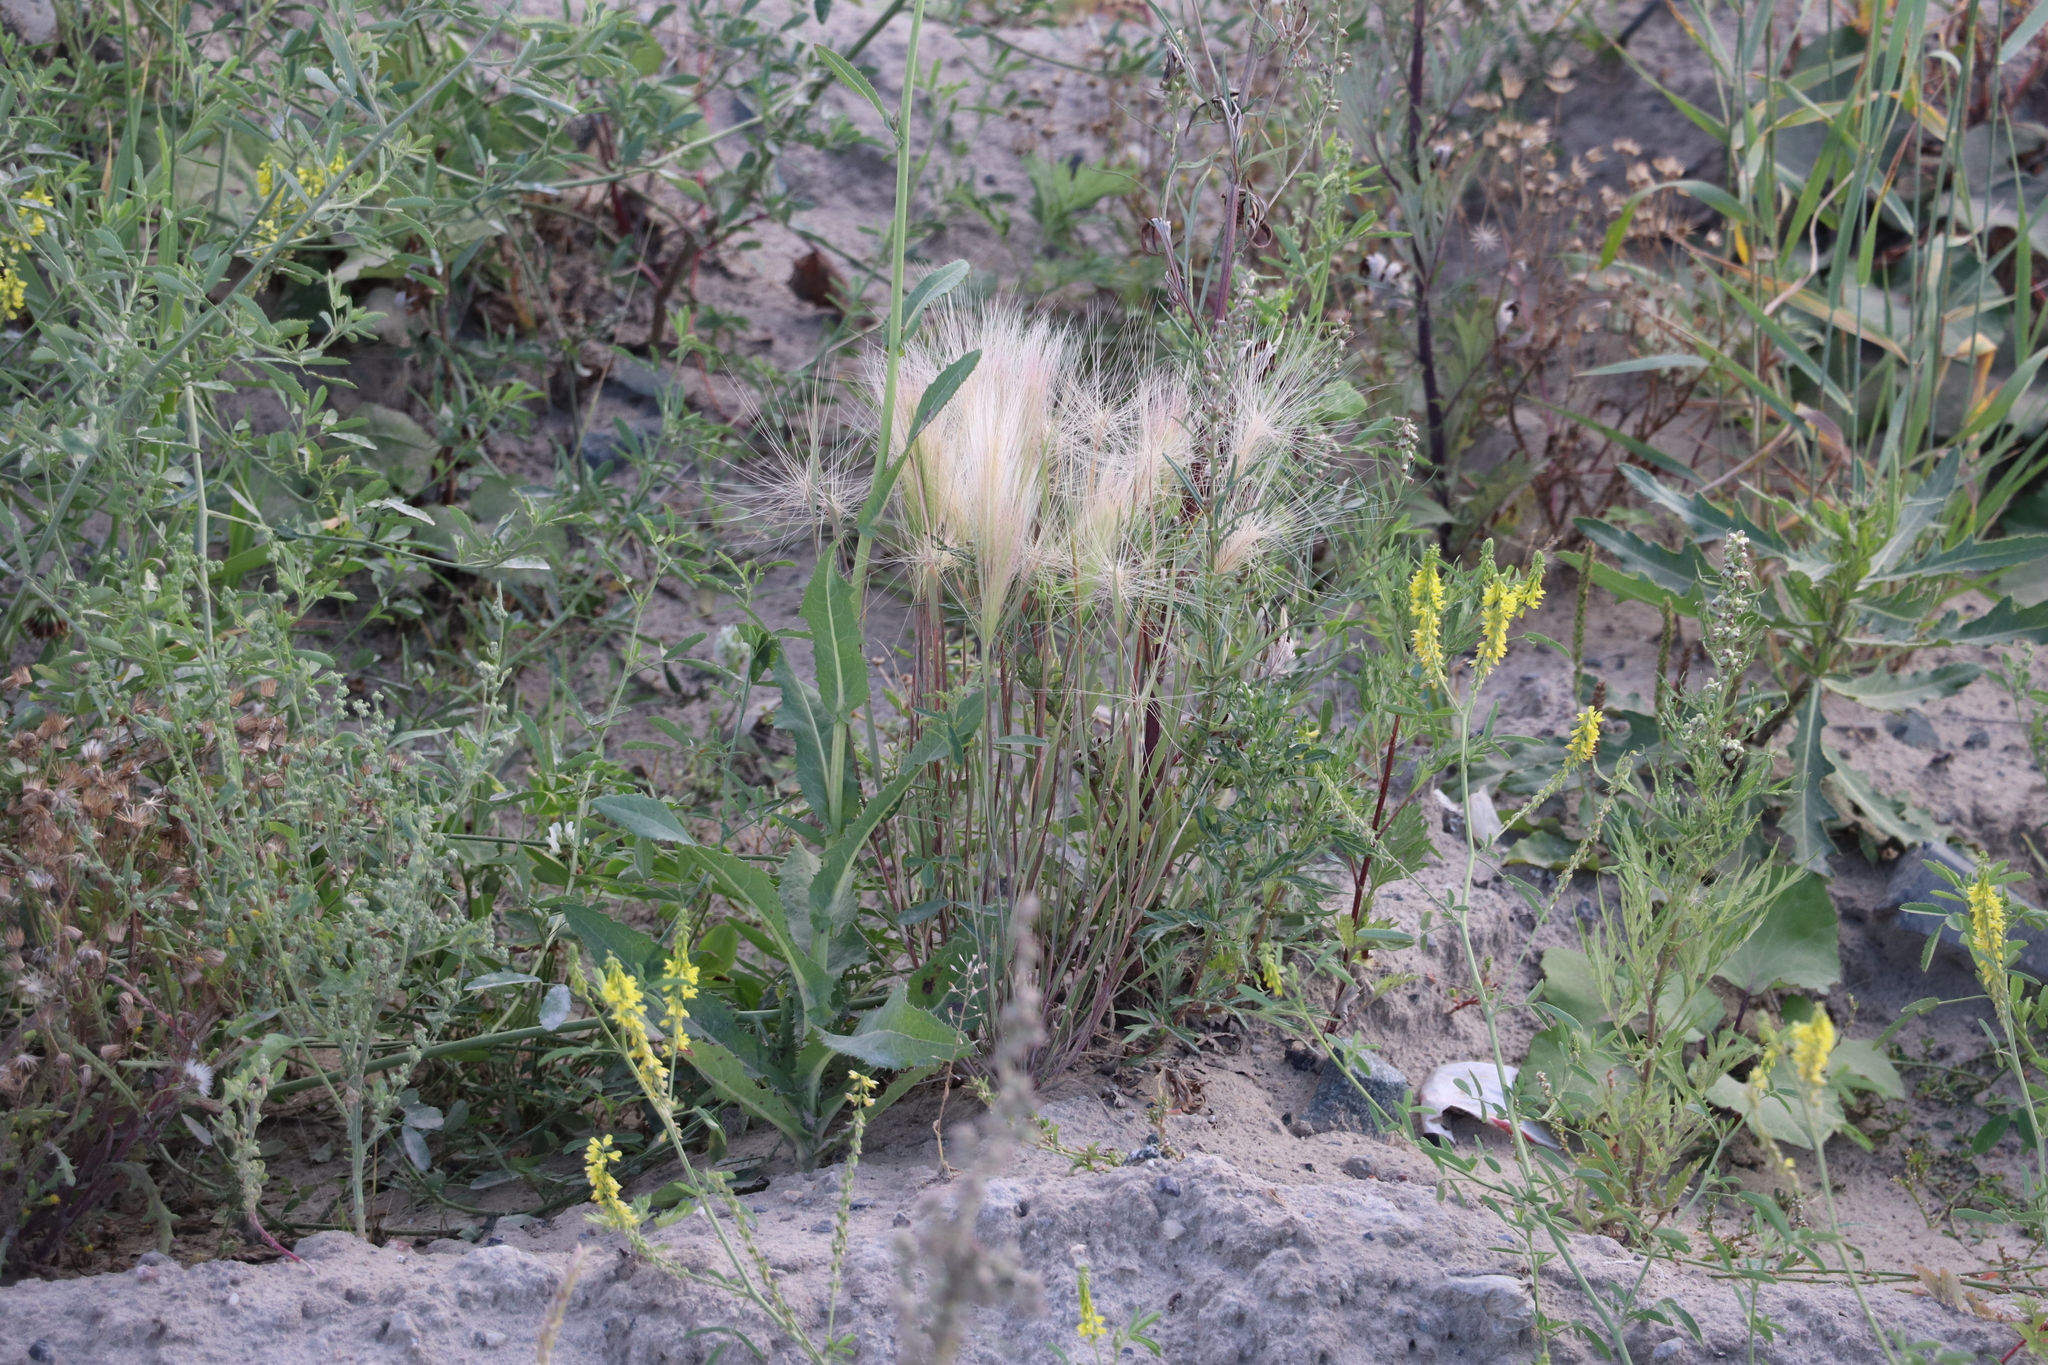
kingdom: Plantae
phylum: Tracheophyta
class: Liliopsida
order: Poales
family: Poaceae
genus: Hordeum
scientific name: Hordeum jubatum
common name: Foxtail barley
